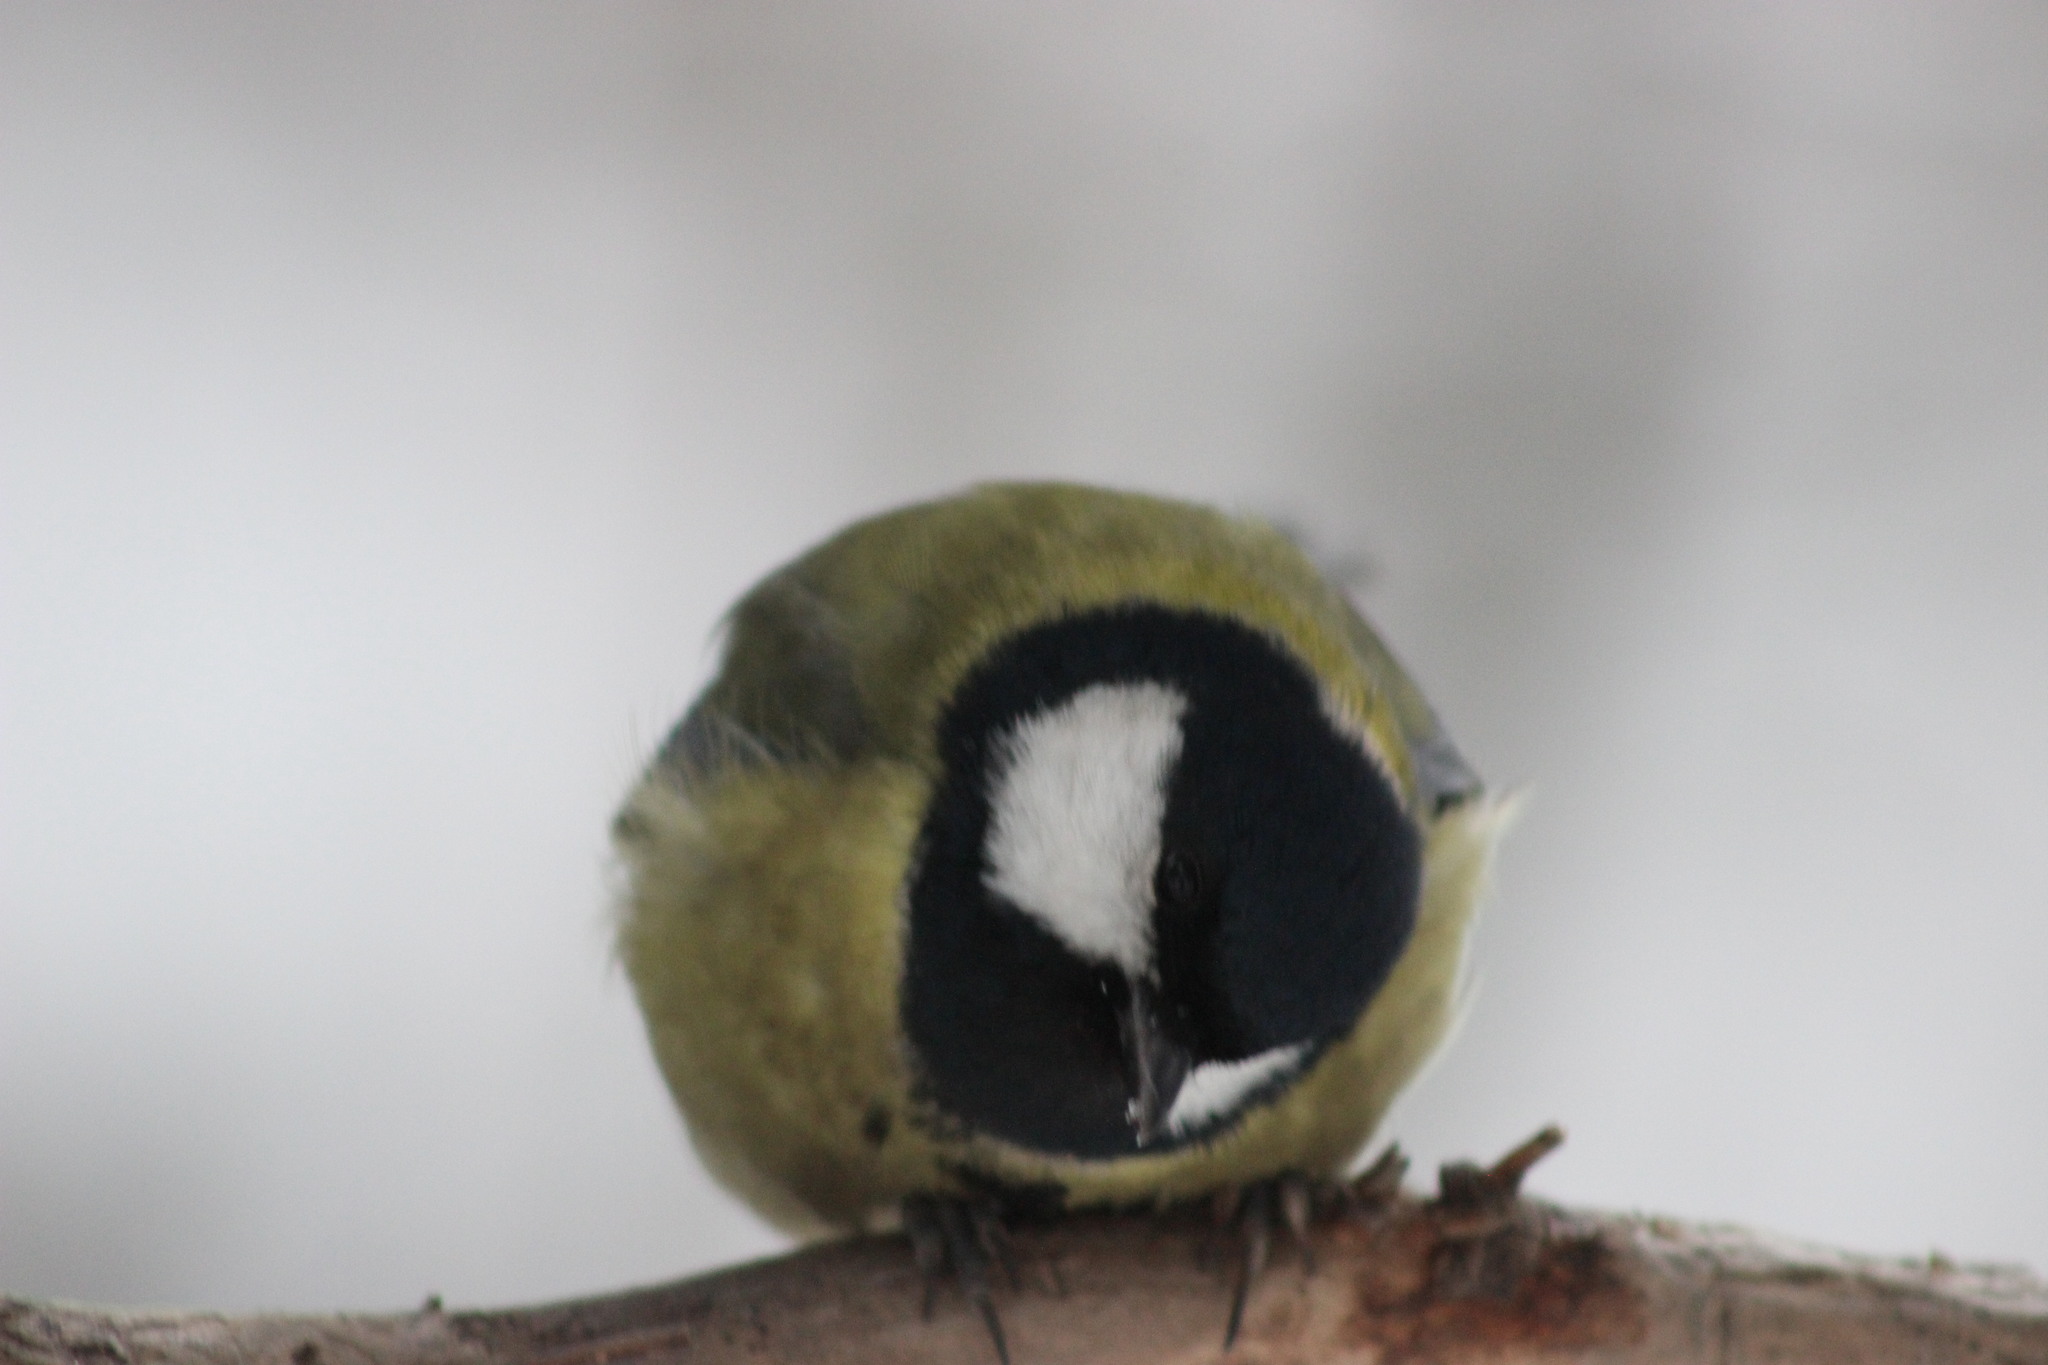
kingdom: Animalia
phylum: Chordata
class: Aves
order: Passeriformes
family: Paridae
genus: Parus
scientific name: Parus major
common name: Great tit
